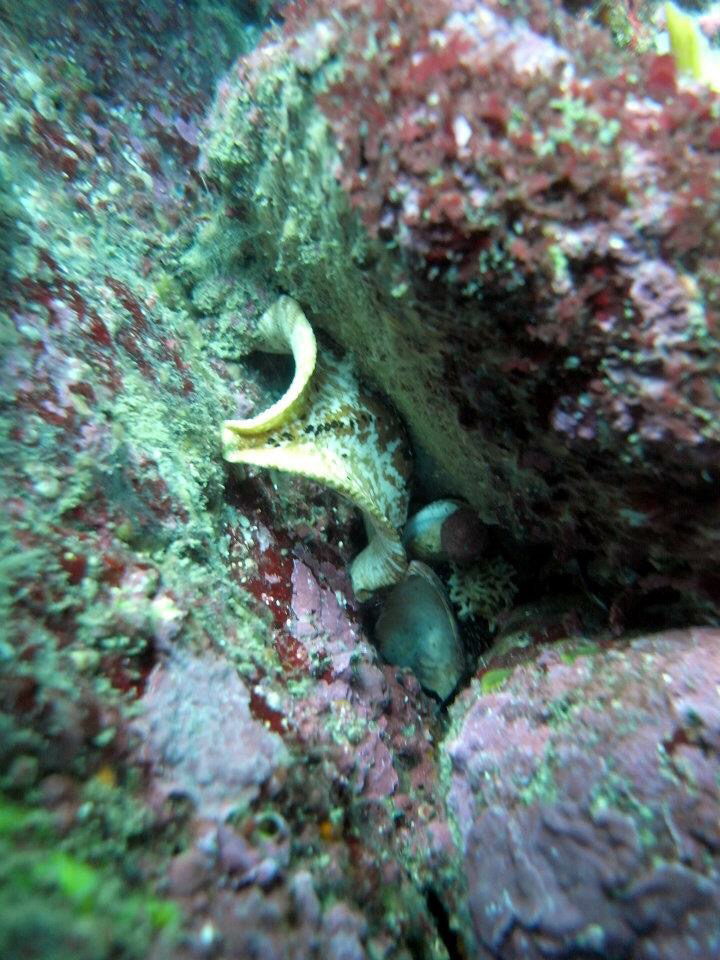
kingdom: Animalia
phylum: Echinodermata
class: Asteroidea
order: Valvatida
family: Asterinidae
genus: Stegnaster
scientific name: Stegnaster inflatus
